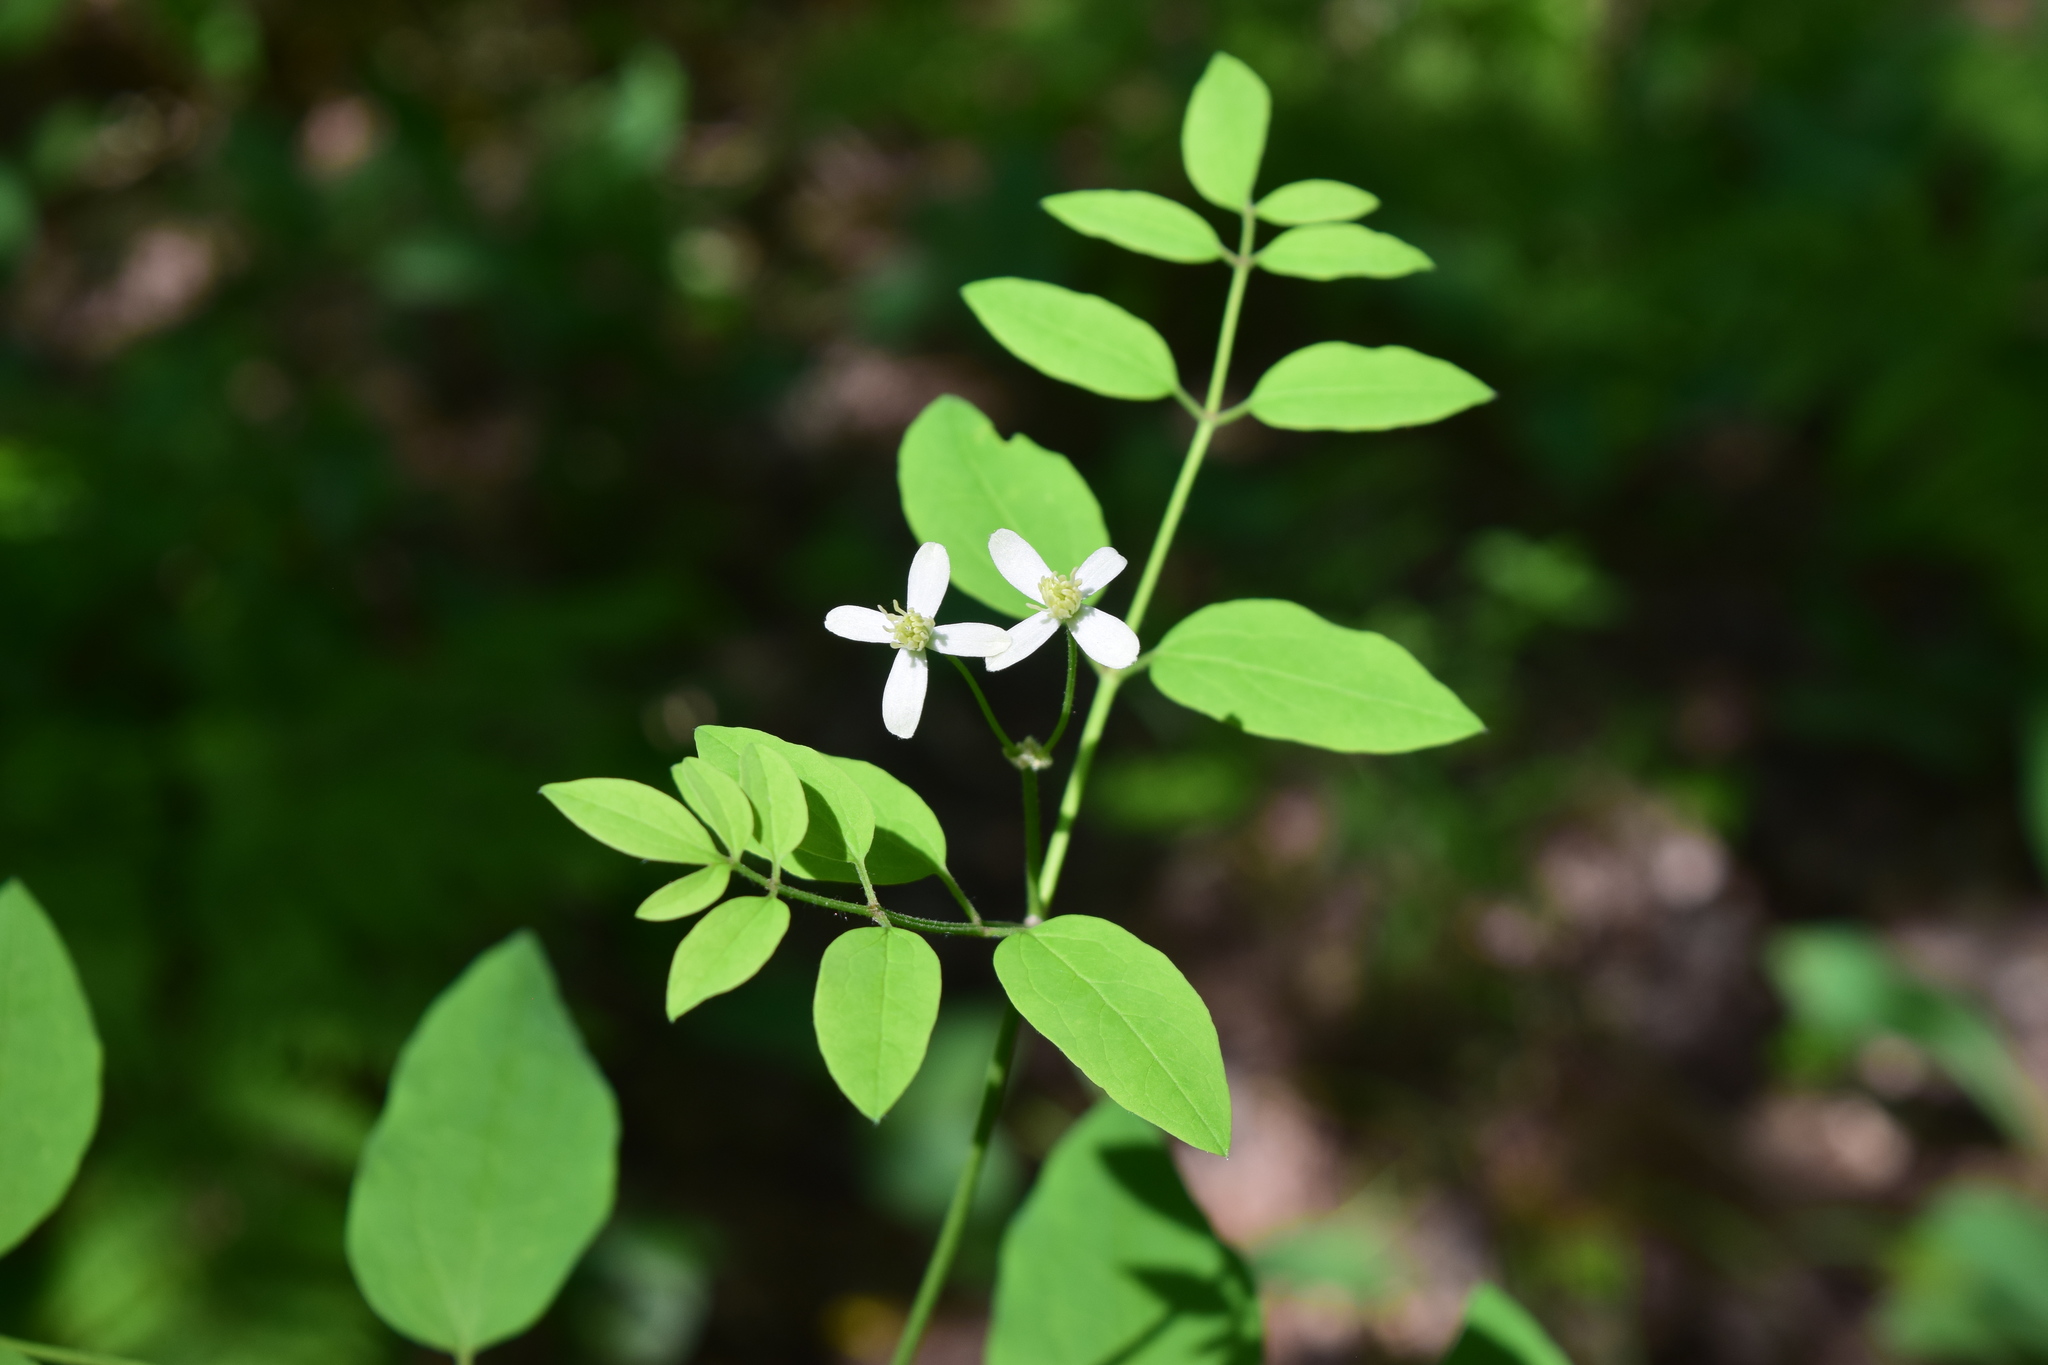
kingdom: Plantae
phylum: Tracheophyta
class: Magnoliopsida
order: Ranunculales
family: Ranunculaceae
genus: Clematis
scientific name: Clematis recta
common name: Ground clematis
